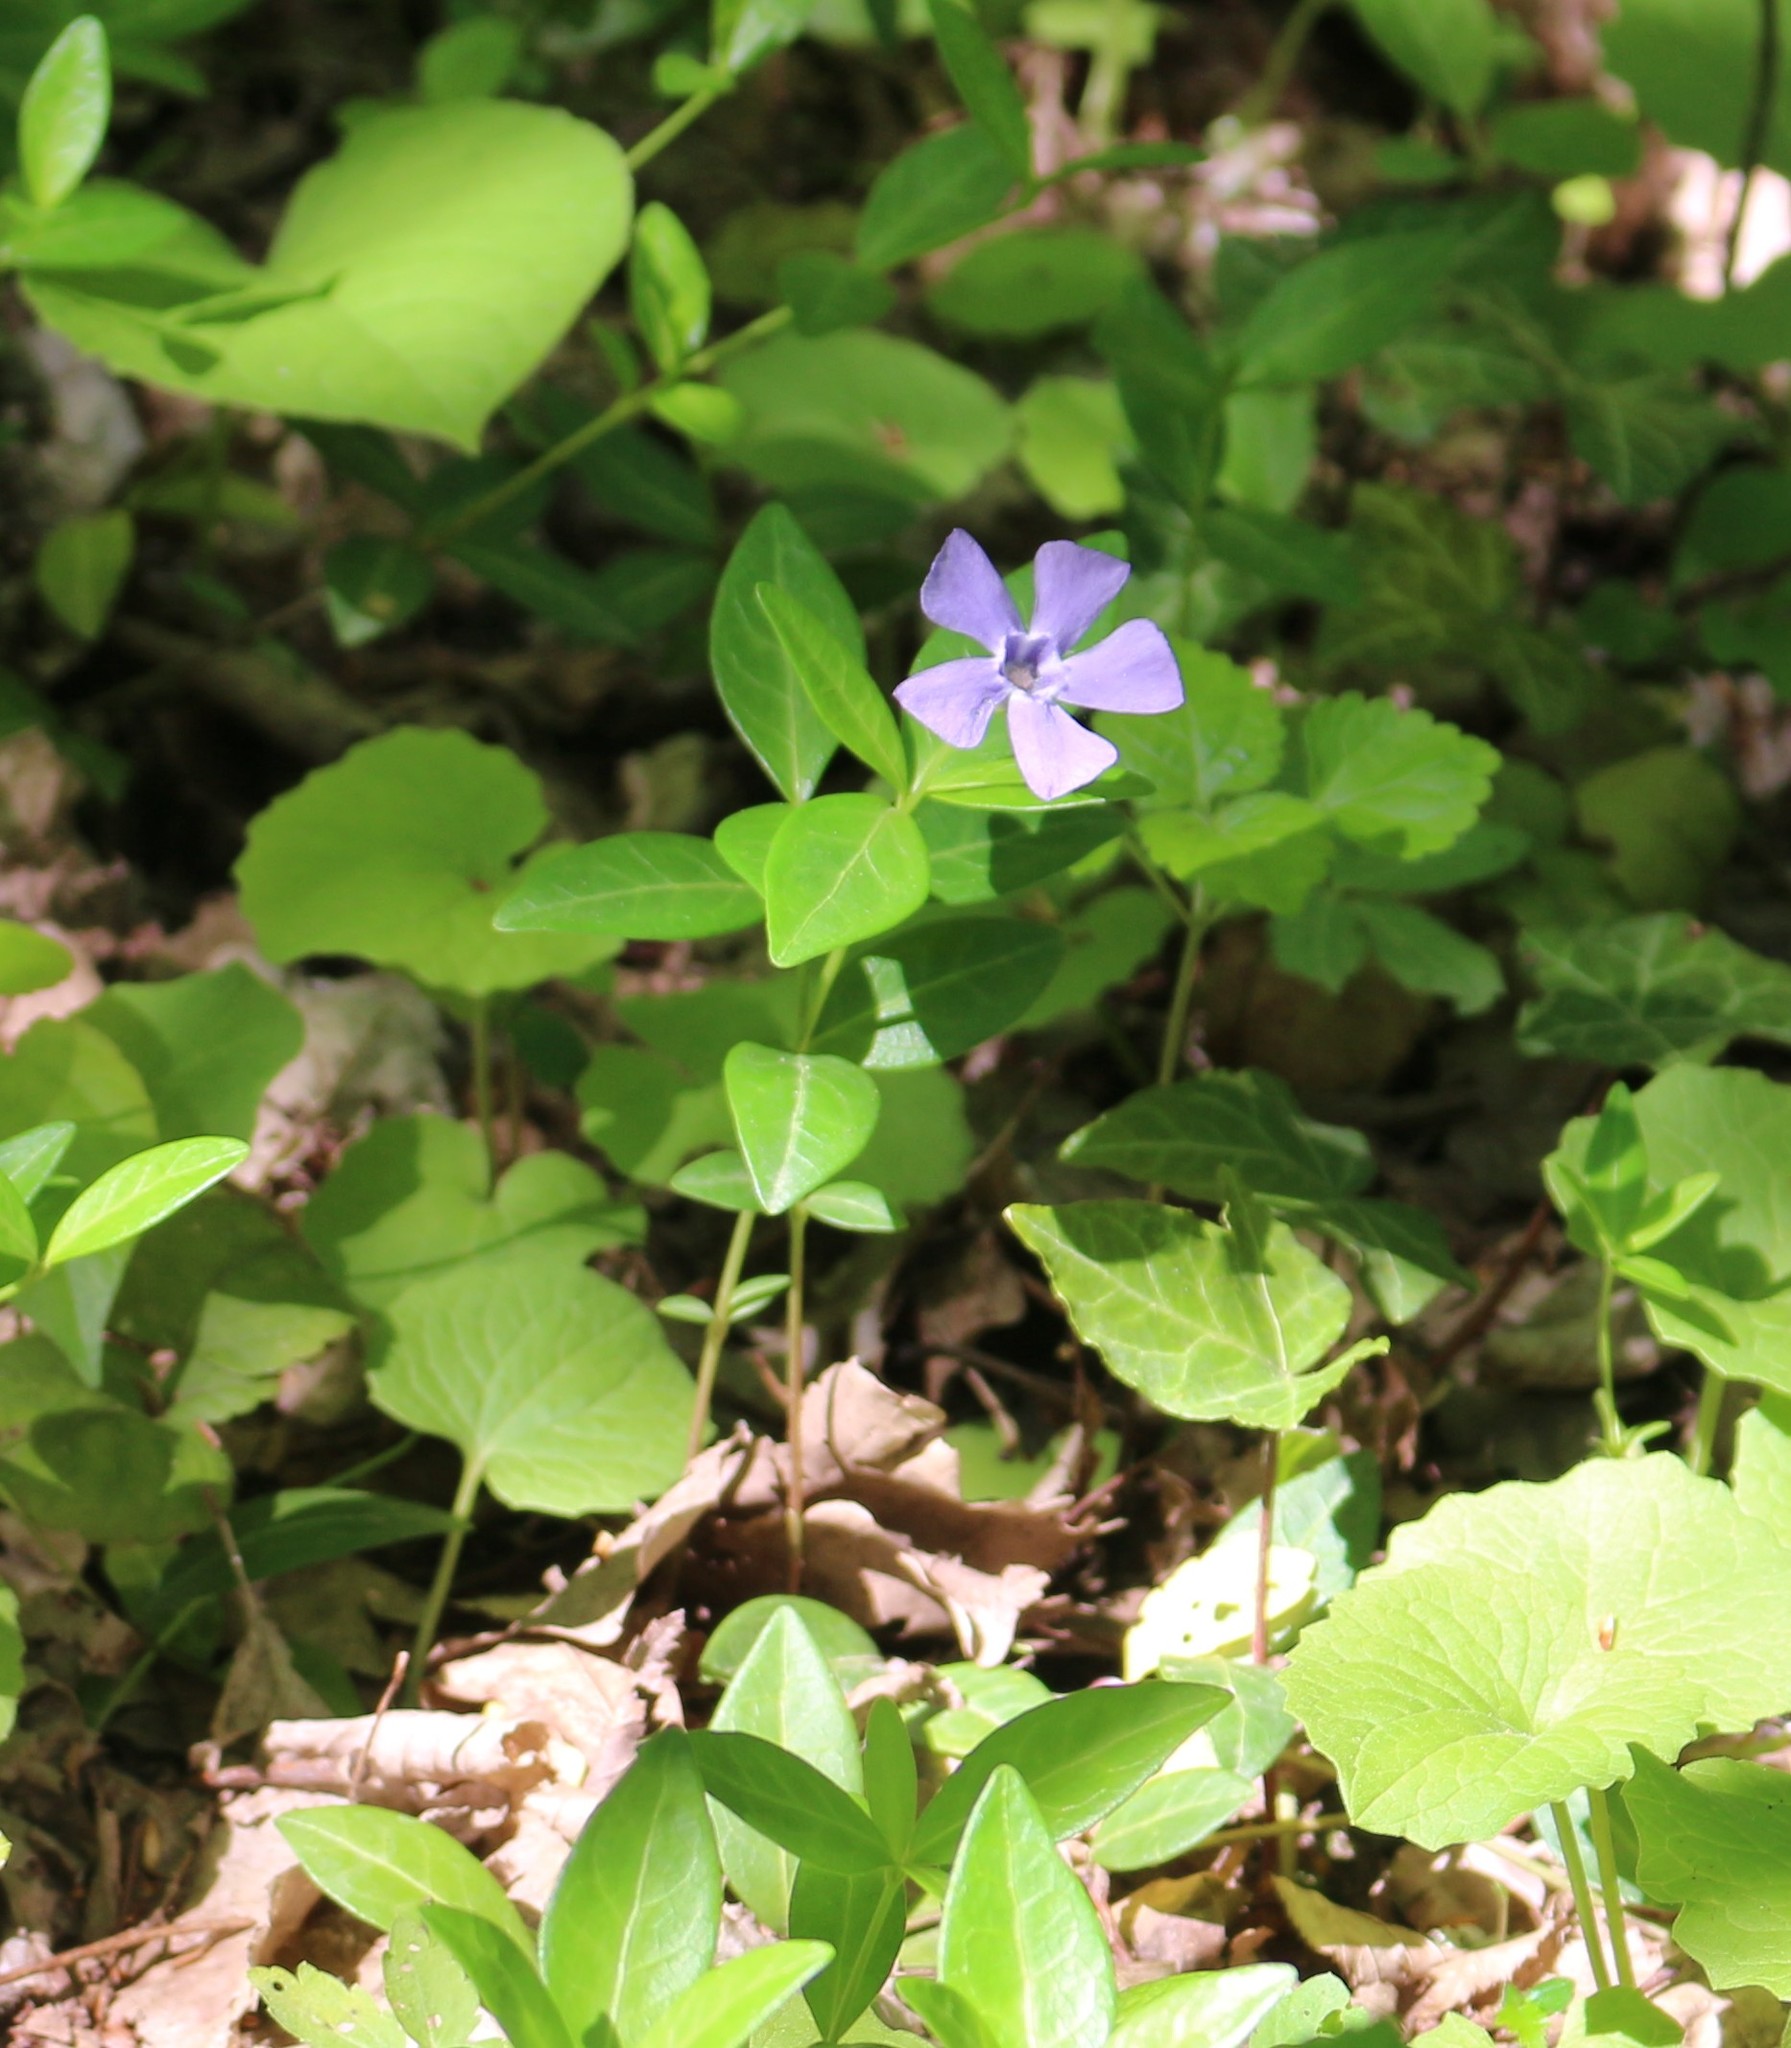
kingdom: Plantae
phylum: Tracheophyta
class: Magnoliopsida
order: Gentianales
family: Apocynaceae
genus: Vinca
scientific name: Vinca minor
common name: Lesser periwinkle
